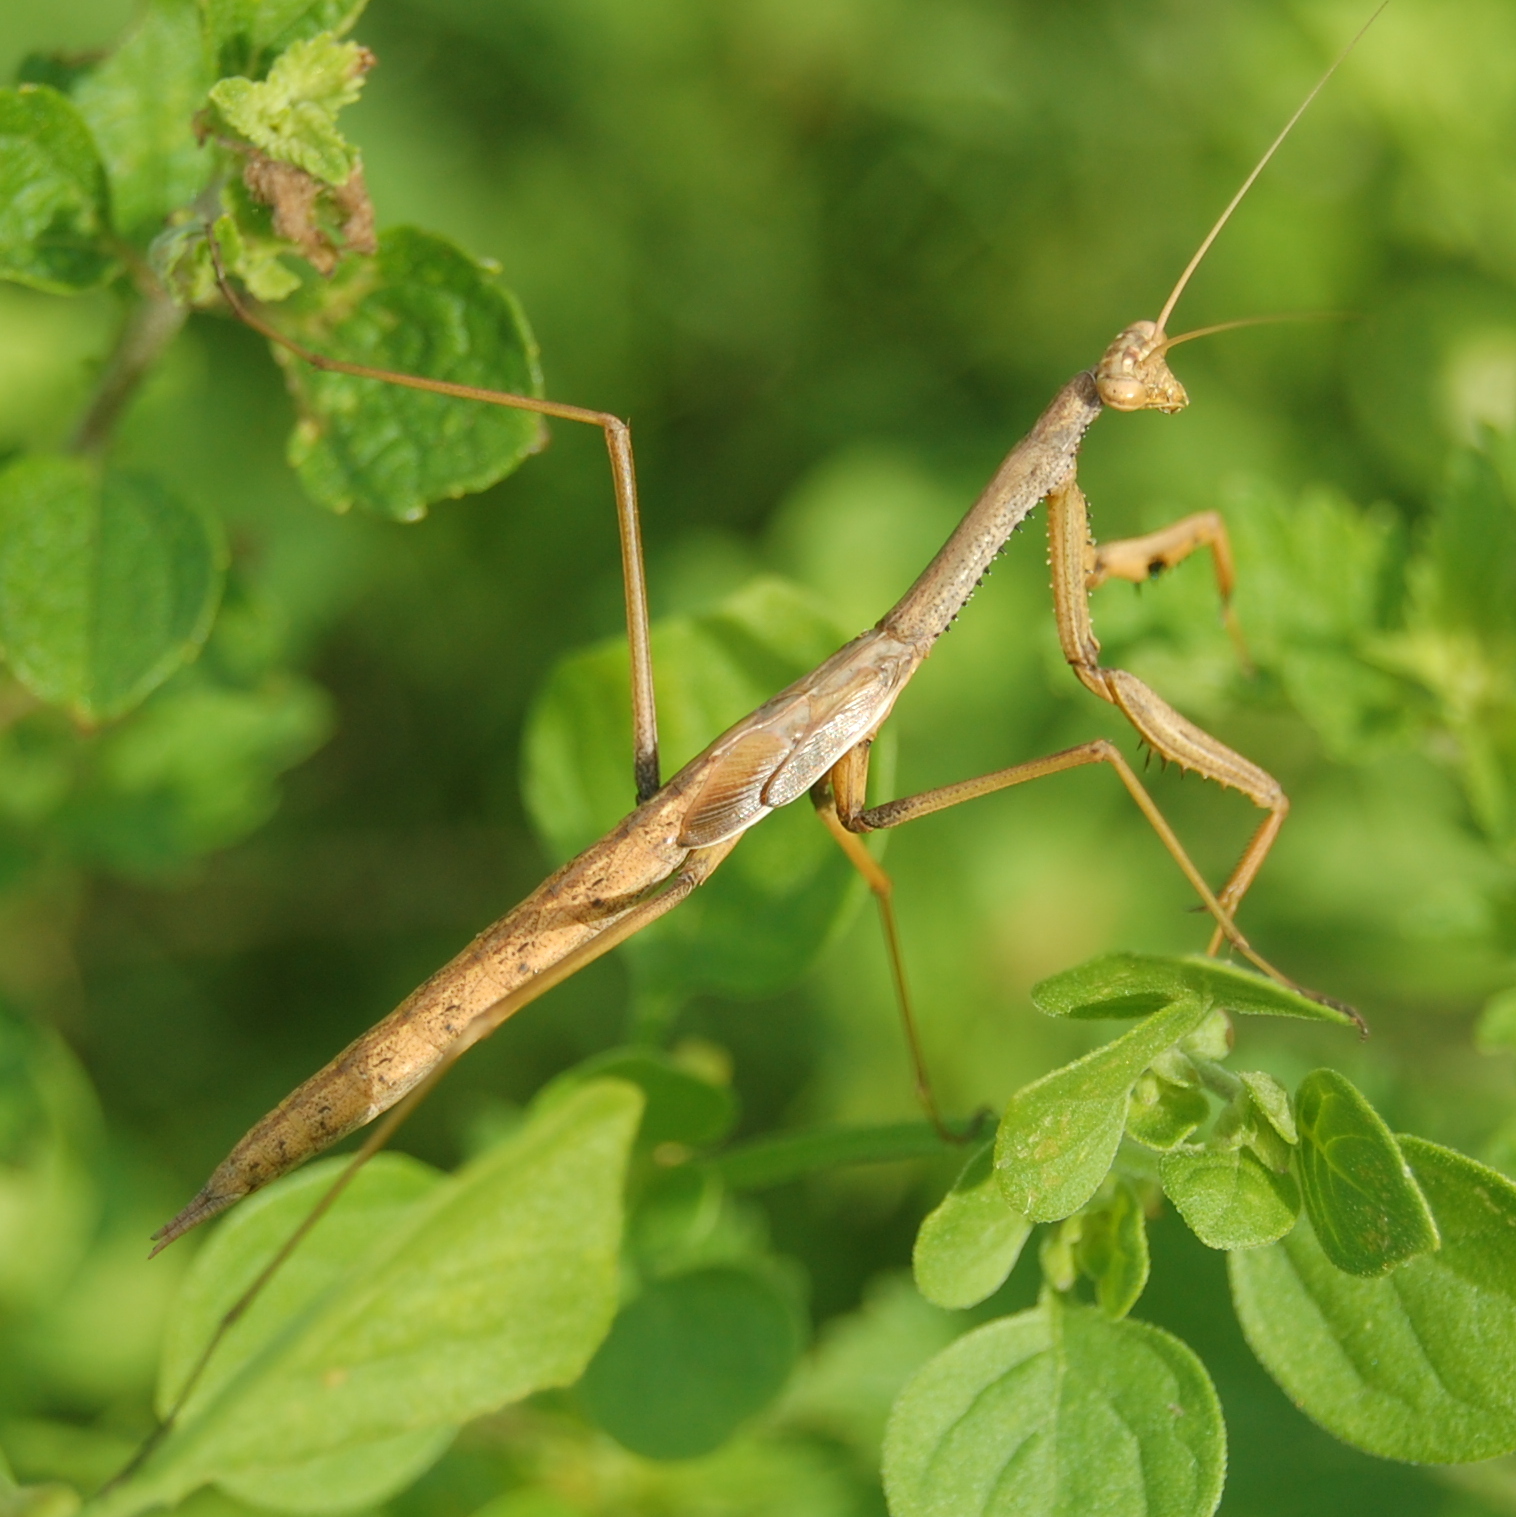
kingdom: Animalia
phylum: Arthropoda
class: Insecta
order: Mantodea
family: Coptopterygidae
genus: Coptopteryx
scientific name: Coptopteryx gayi
